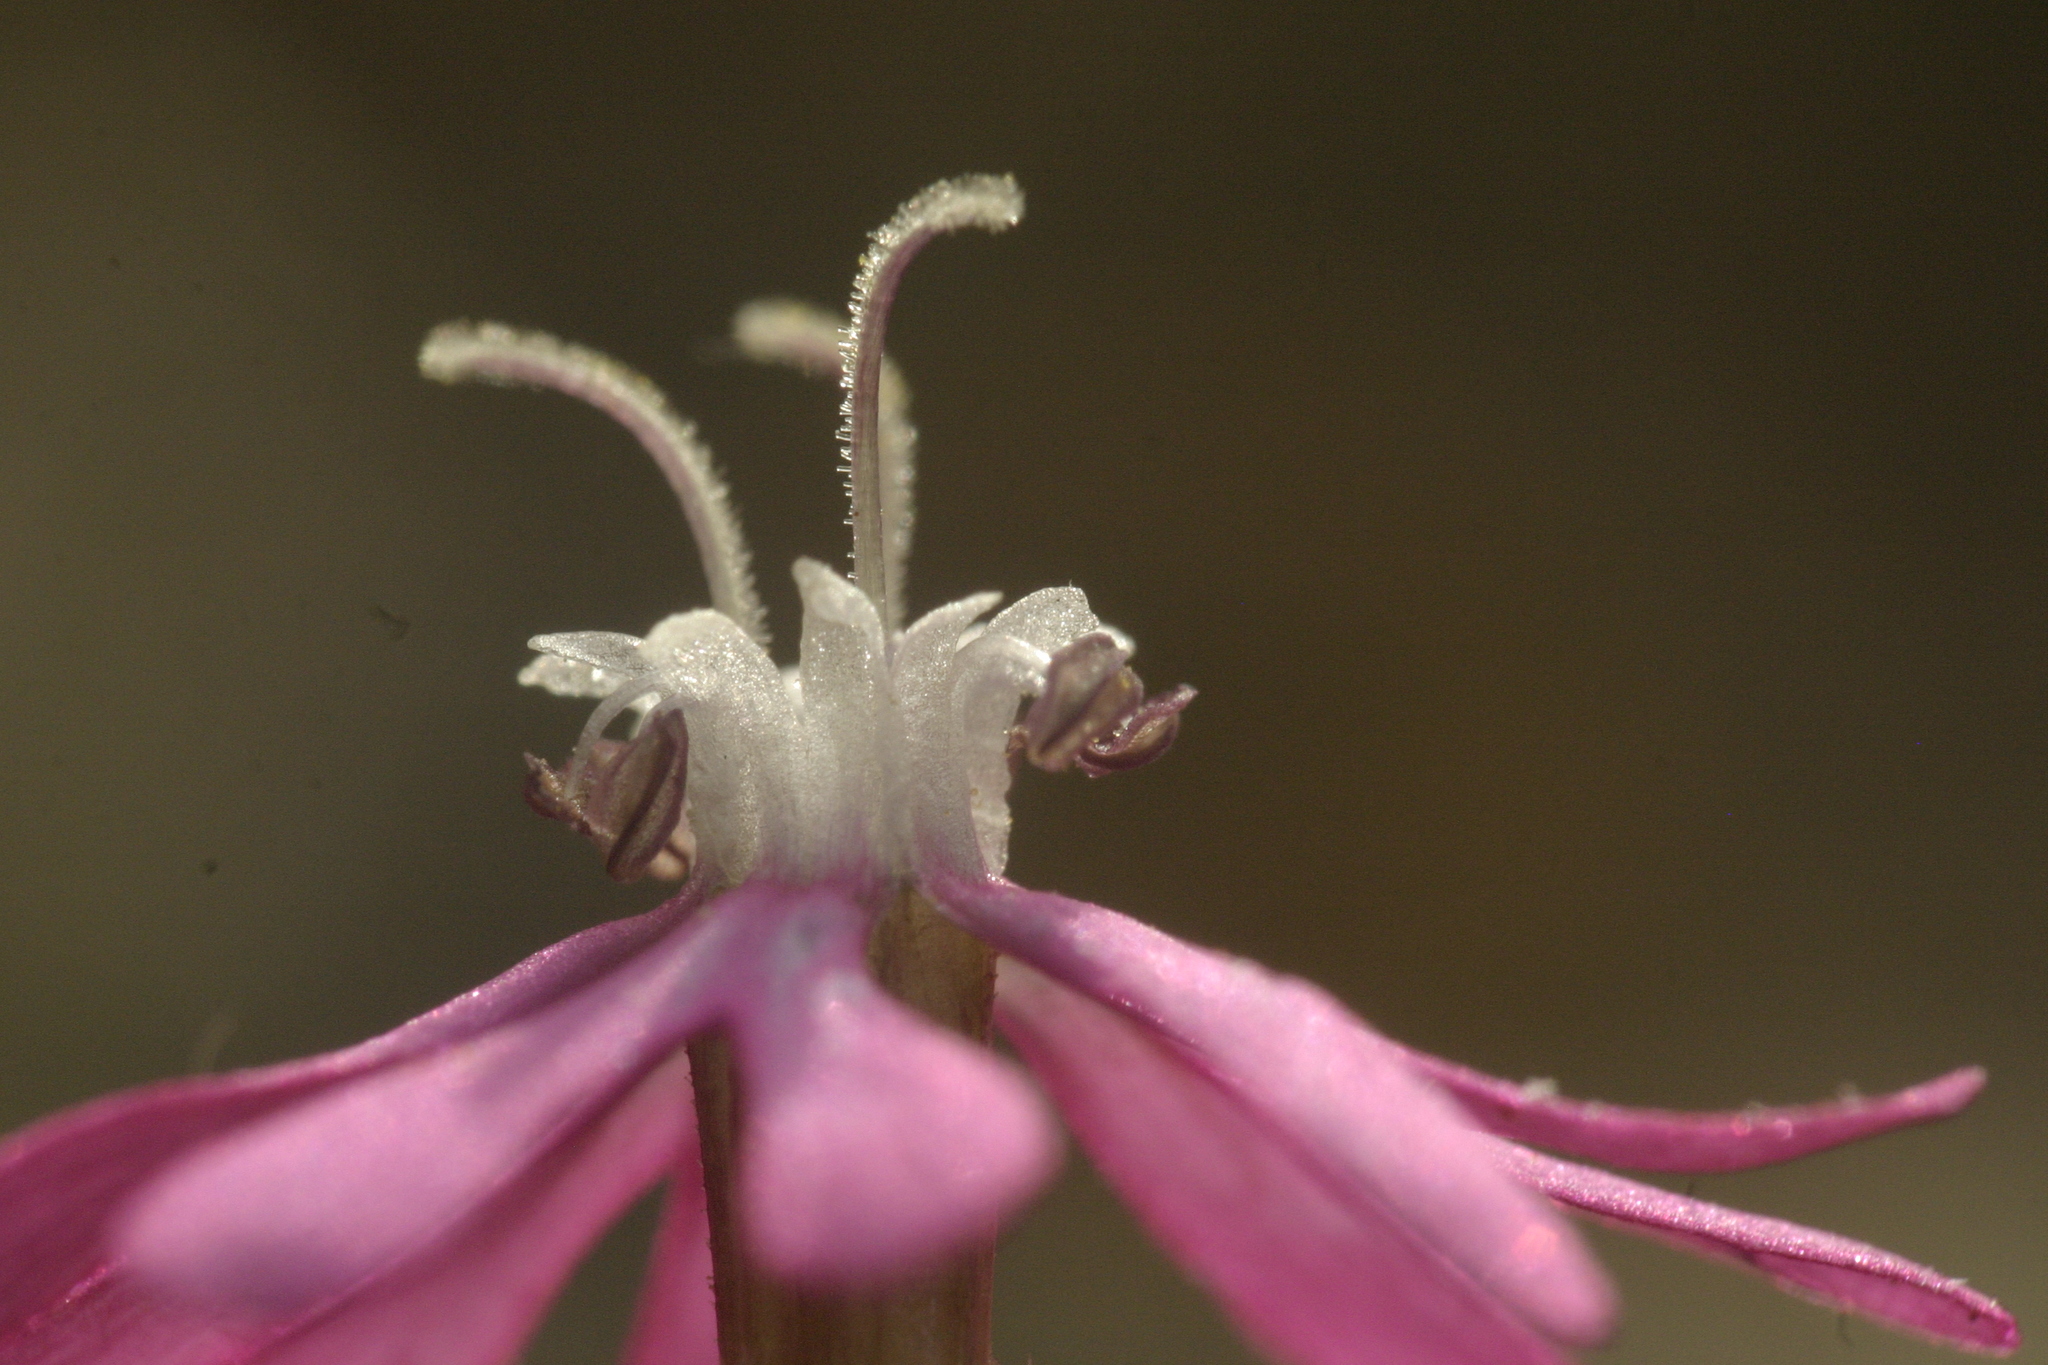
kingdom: Plantae
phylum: Tracheophyta
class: Magnoliopsida
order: Caryophyllales
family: Caryophyllaceae
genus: Silene
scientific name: Silene colorata
